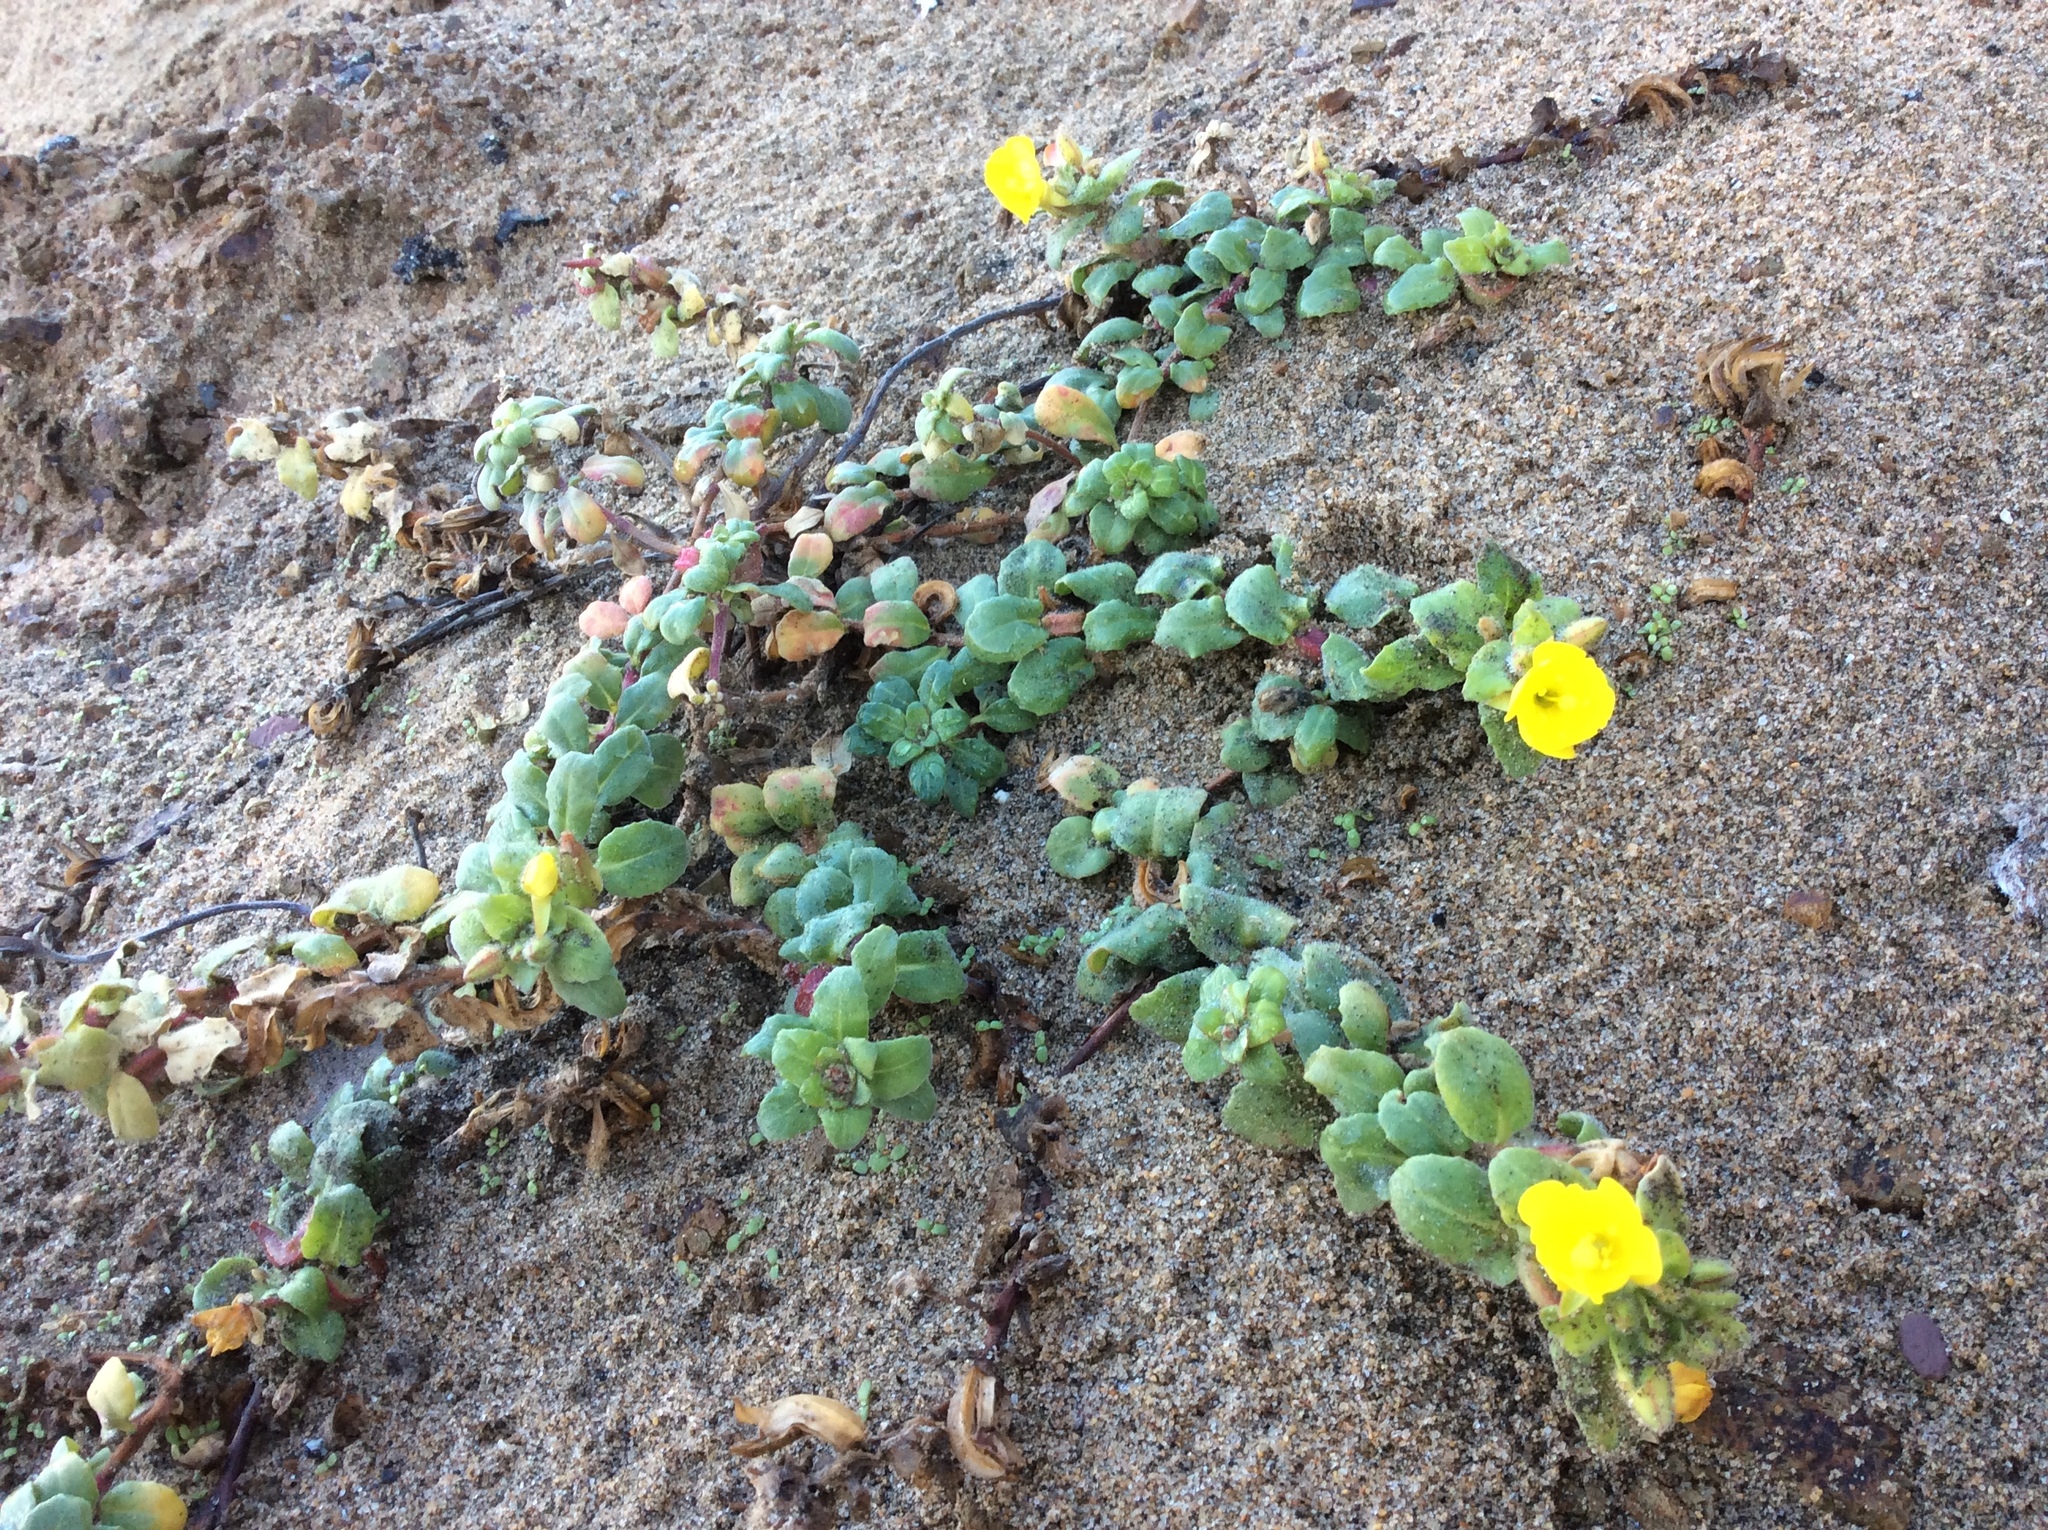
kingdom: Plantae
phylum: Tracheophyta
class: Magnoliopsida
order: Myrtales
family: Onagraceae
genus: Camissoniopsis
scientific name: Camissoniopsis cheiranthifolia
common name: Beach suncup
